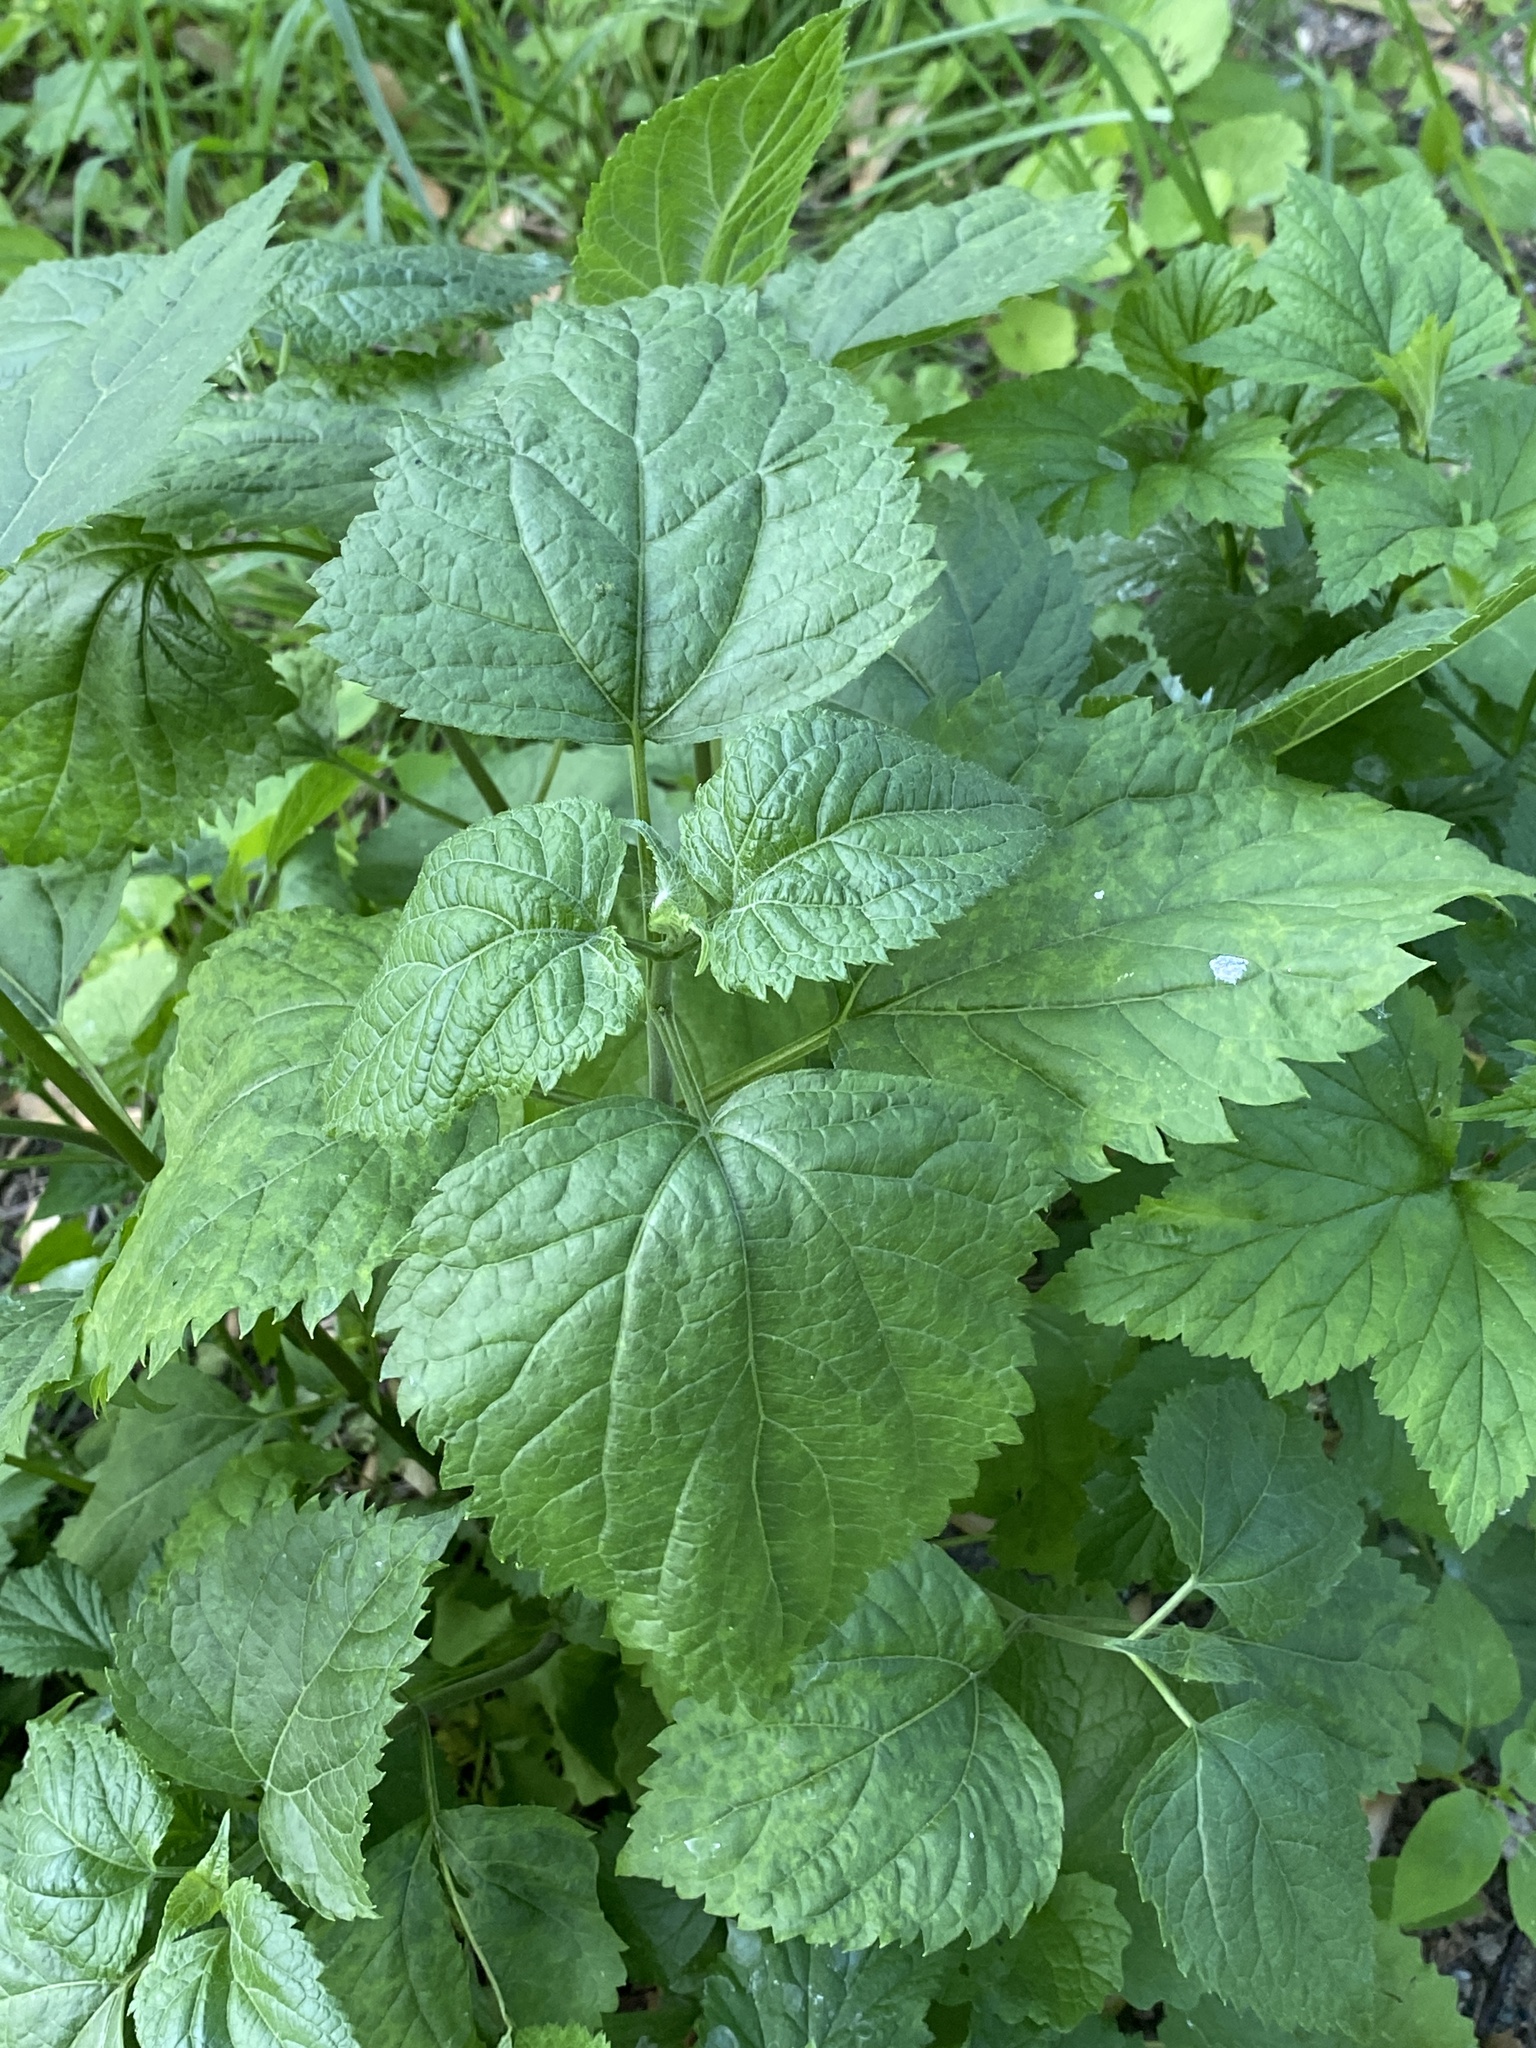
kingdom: Plantae
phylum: Tracheophyta
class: Magnoliopsida
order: Asterales
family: Asteraceae
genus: Ageratina
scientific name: Ageratina altissima
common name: White snakeroot
